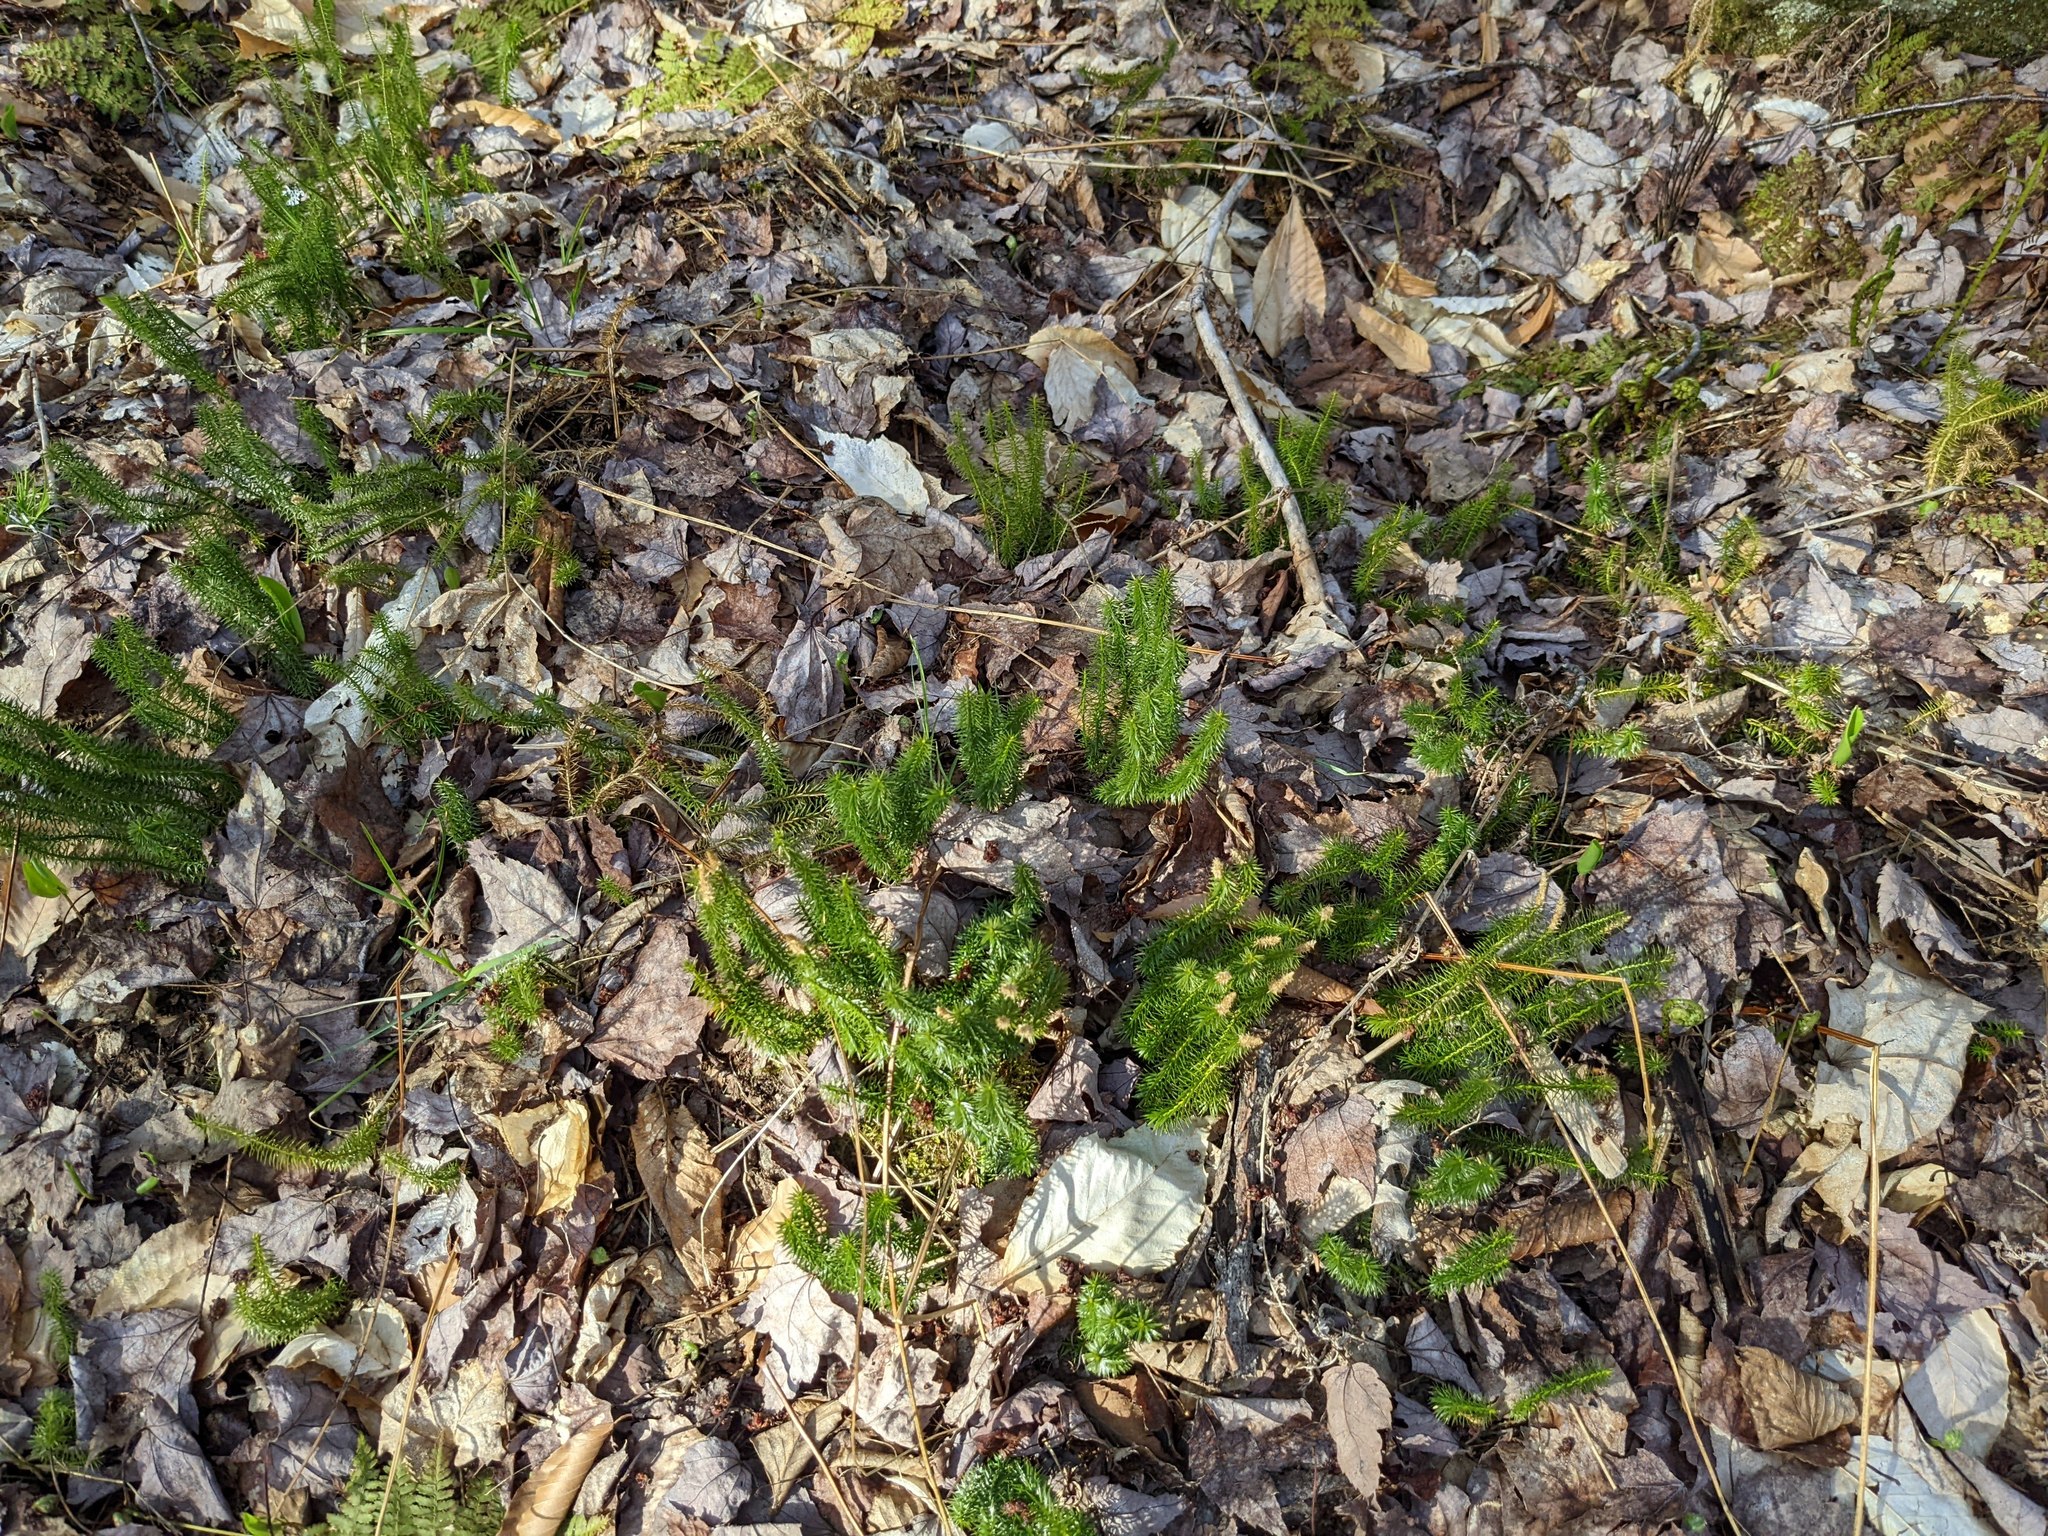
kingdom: Plantae
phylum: Tracheophyta
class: Lycopodiopsida
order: Lycopodiales
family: Lycopodiaceae
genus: Spinulum
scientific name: Spinulum annotinum
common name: Interrupted club-moss
